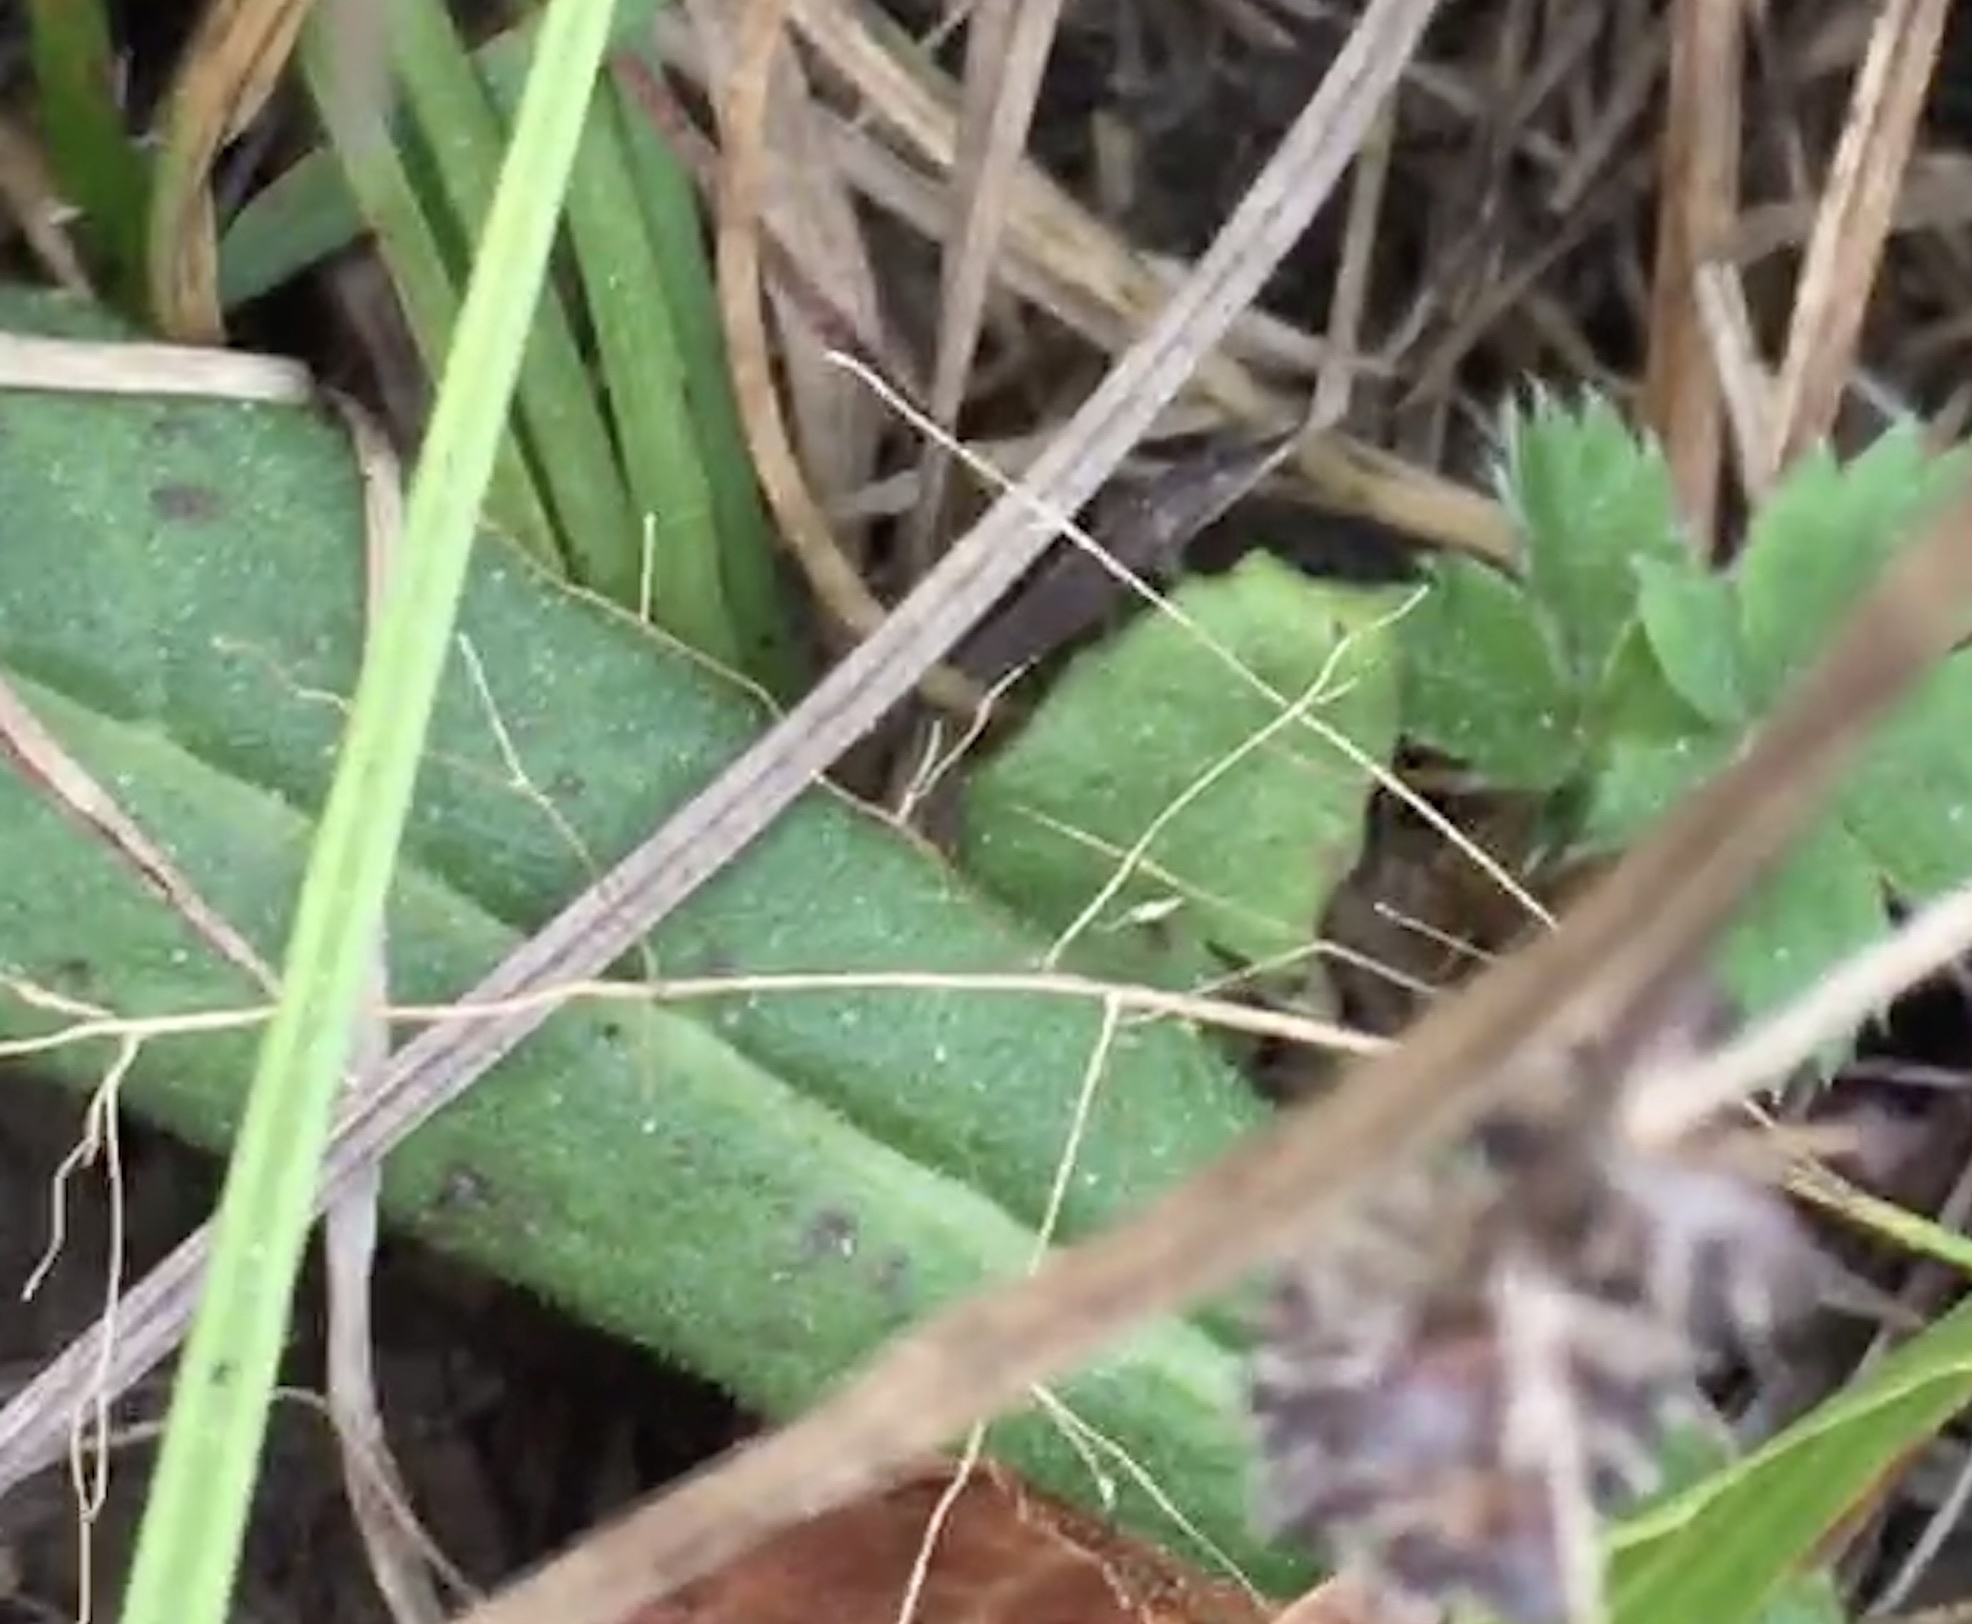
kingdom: Plantae
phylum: Tracheophyta
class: Magnoliopsida
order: Asterales
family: Asteraceae
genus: Vernonia
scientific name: Vernonia acaulis
